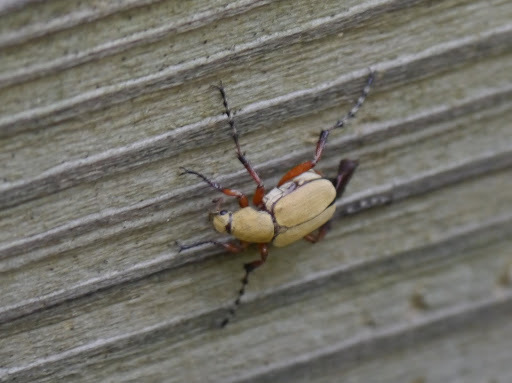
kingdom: Animalia
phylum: Arthropoda
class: Insecta
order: Coleoptera
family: Scarabaeidae
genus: Macrodactylus
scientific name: Macrodactylus
